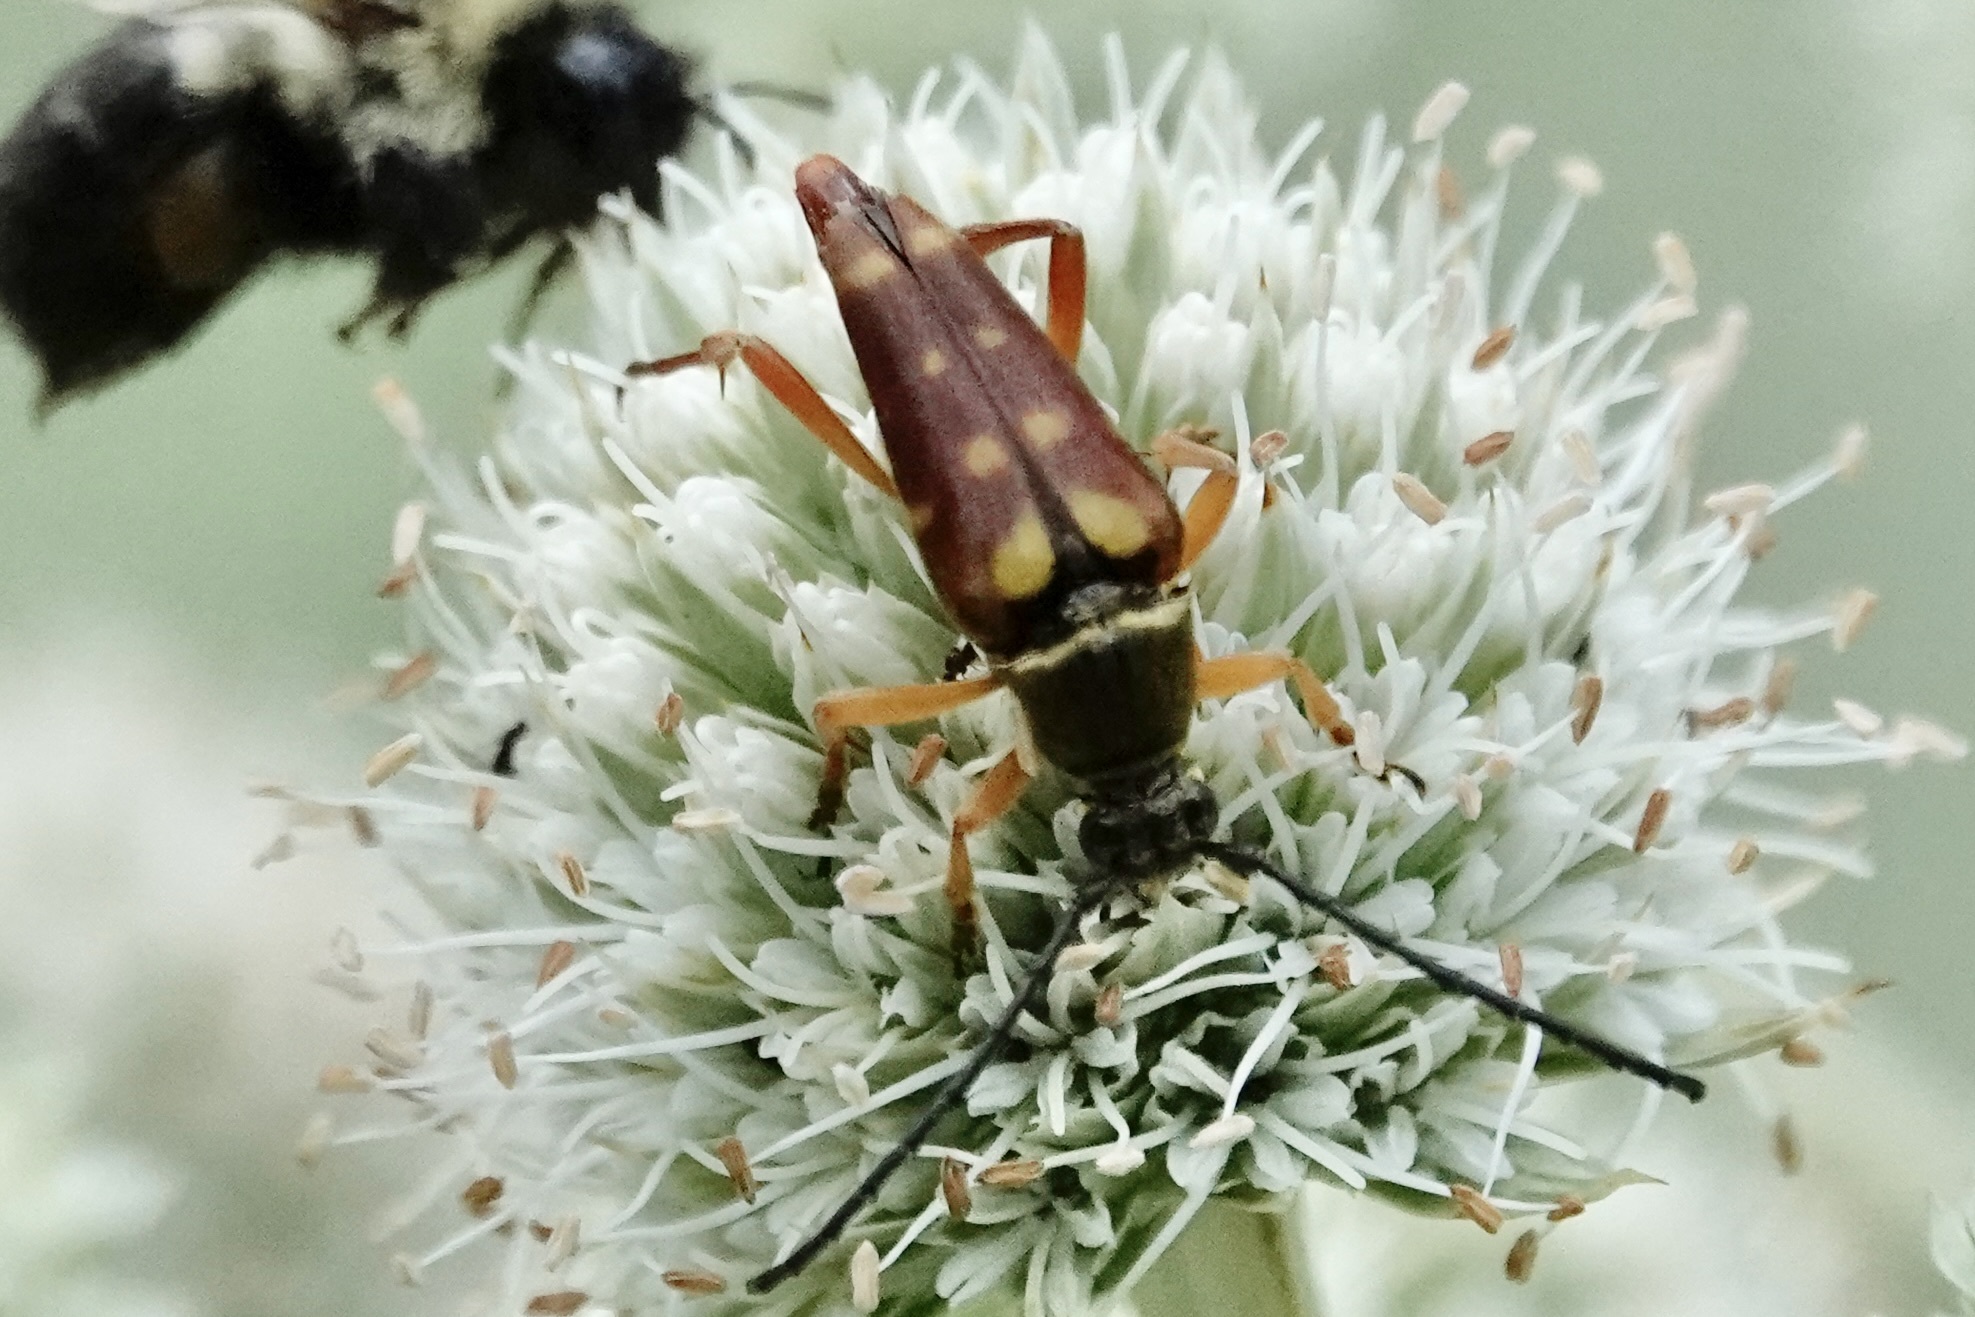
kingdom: Animalia
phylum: Arthropoda
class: Insecta
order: Coleoptera
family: Cerambycidae
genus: Typocerus
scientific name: Typocerus velutinus
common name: Banded longhorn beetle
